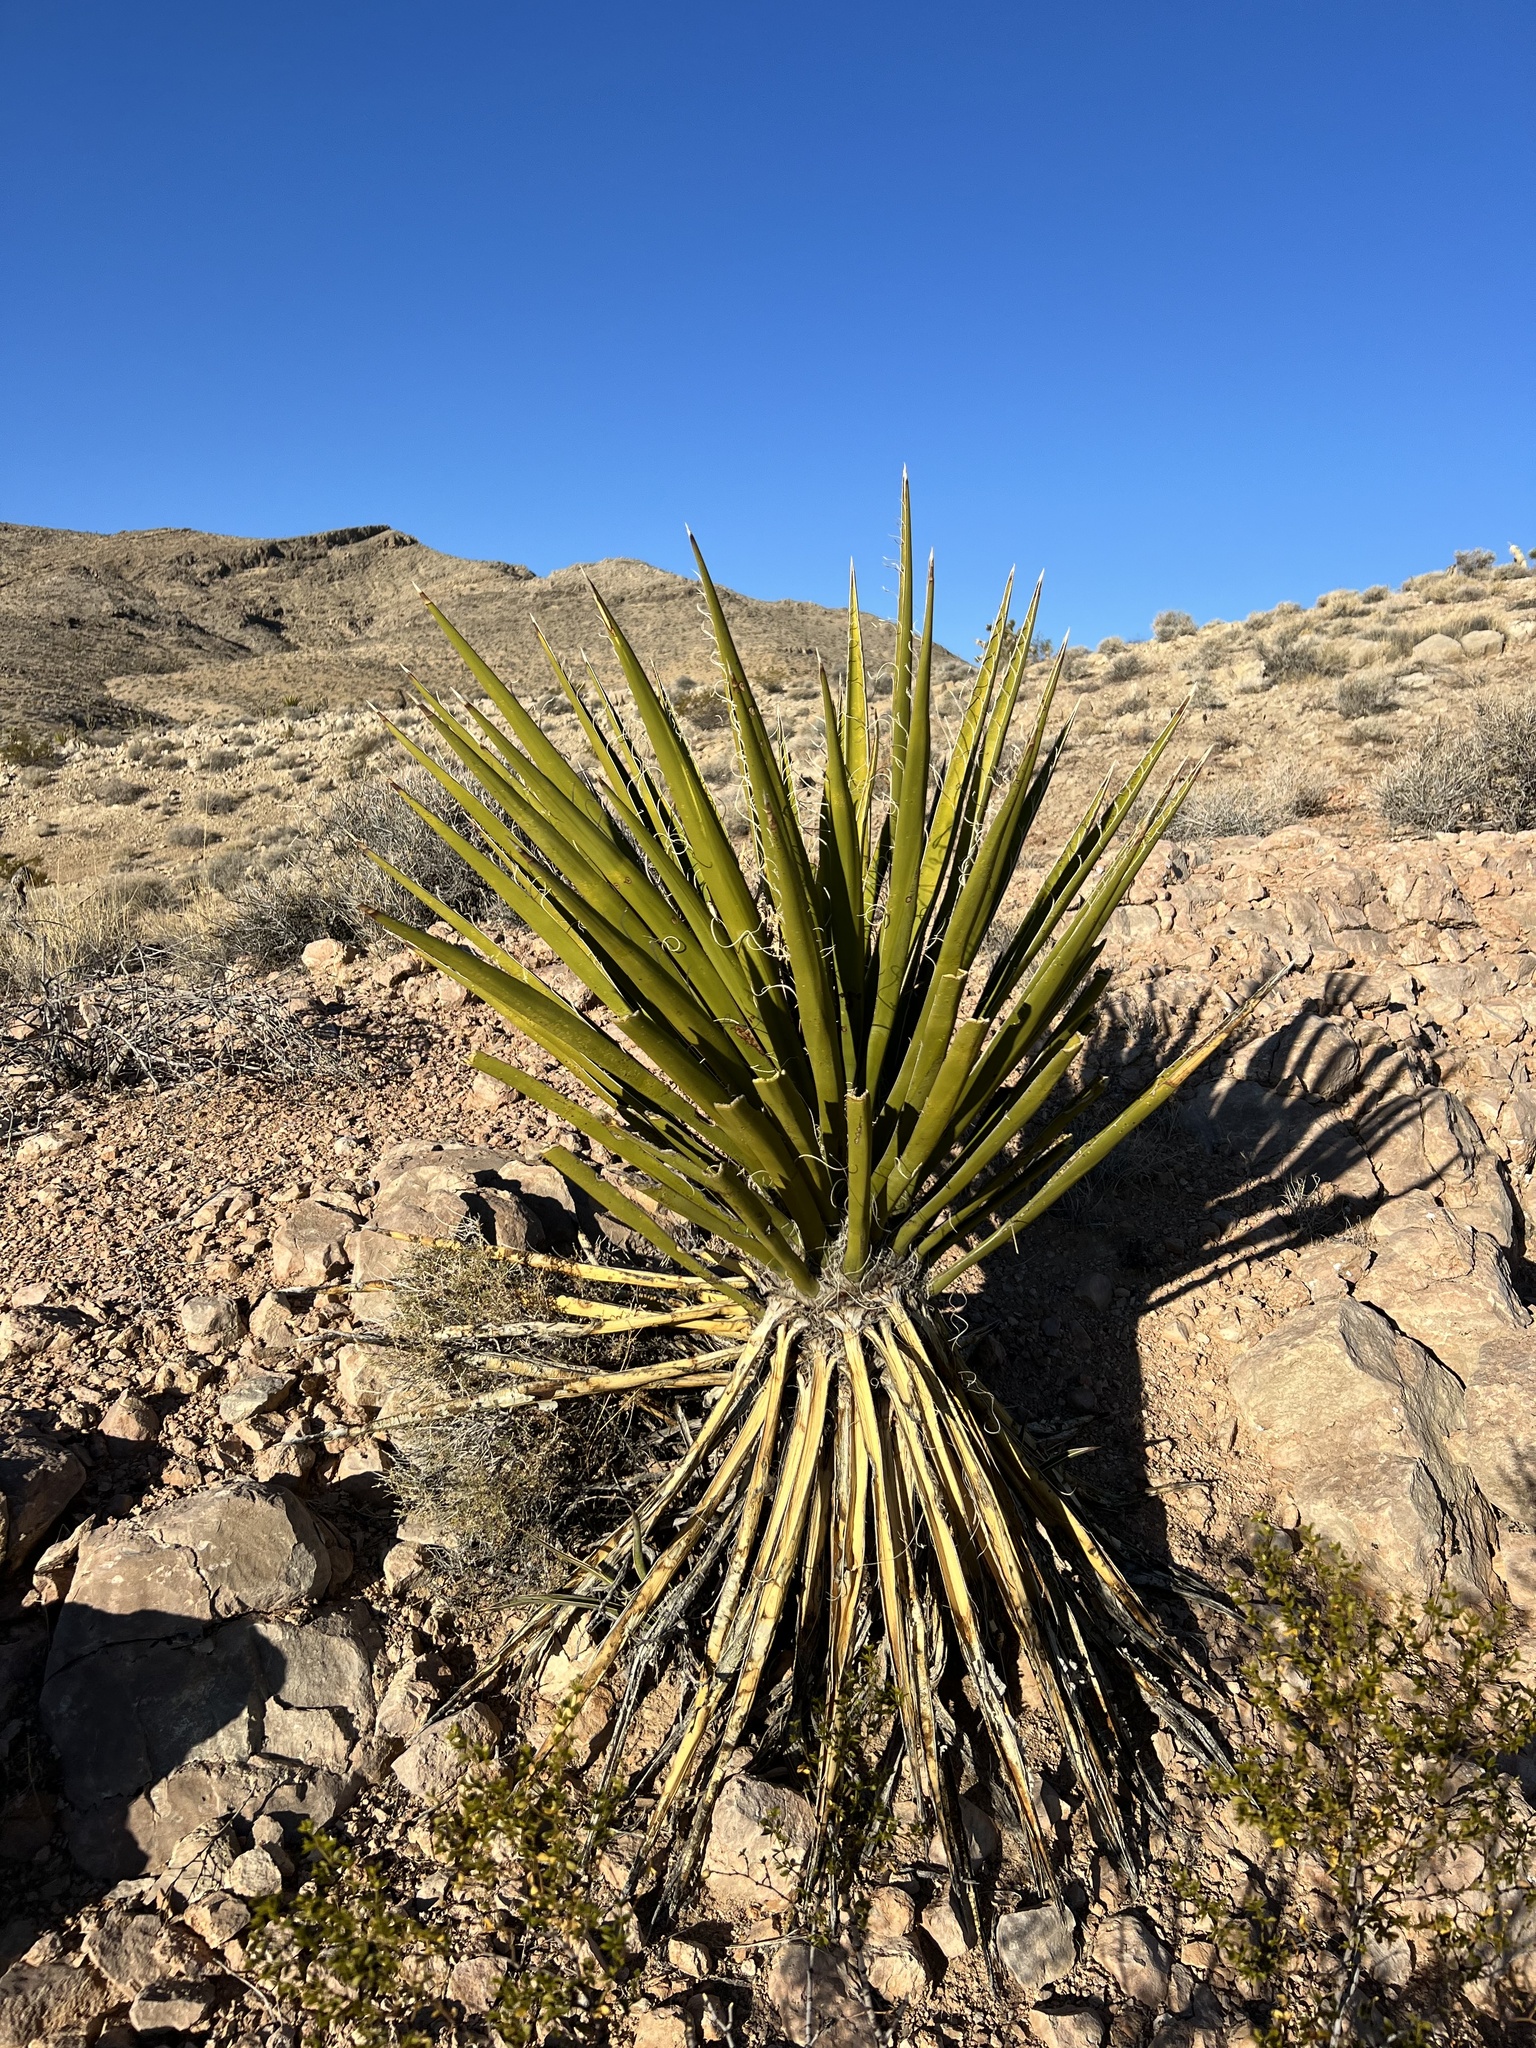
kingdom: Plantae
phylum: Tracheophyta
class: Liliopsida
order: Asparagales
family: Asparagaceae
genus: Yucca
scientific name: Yucca schidigera
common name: Mojave yucca
